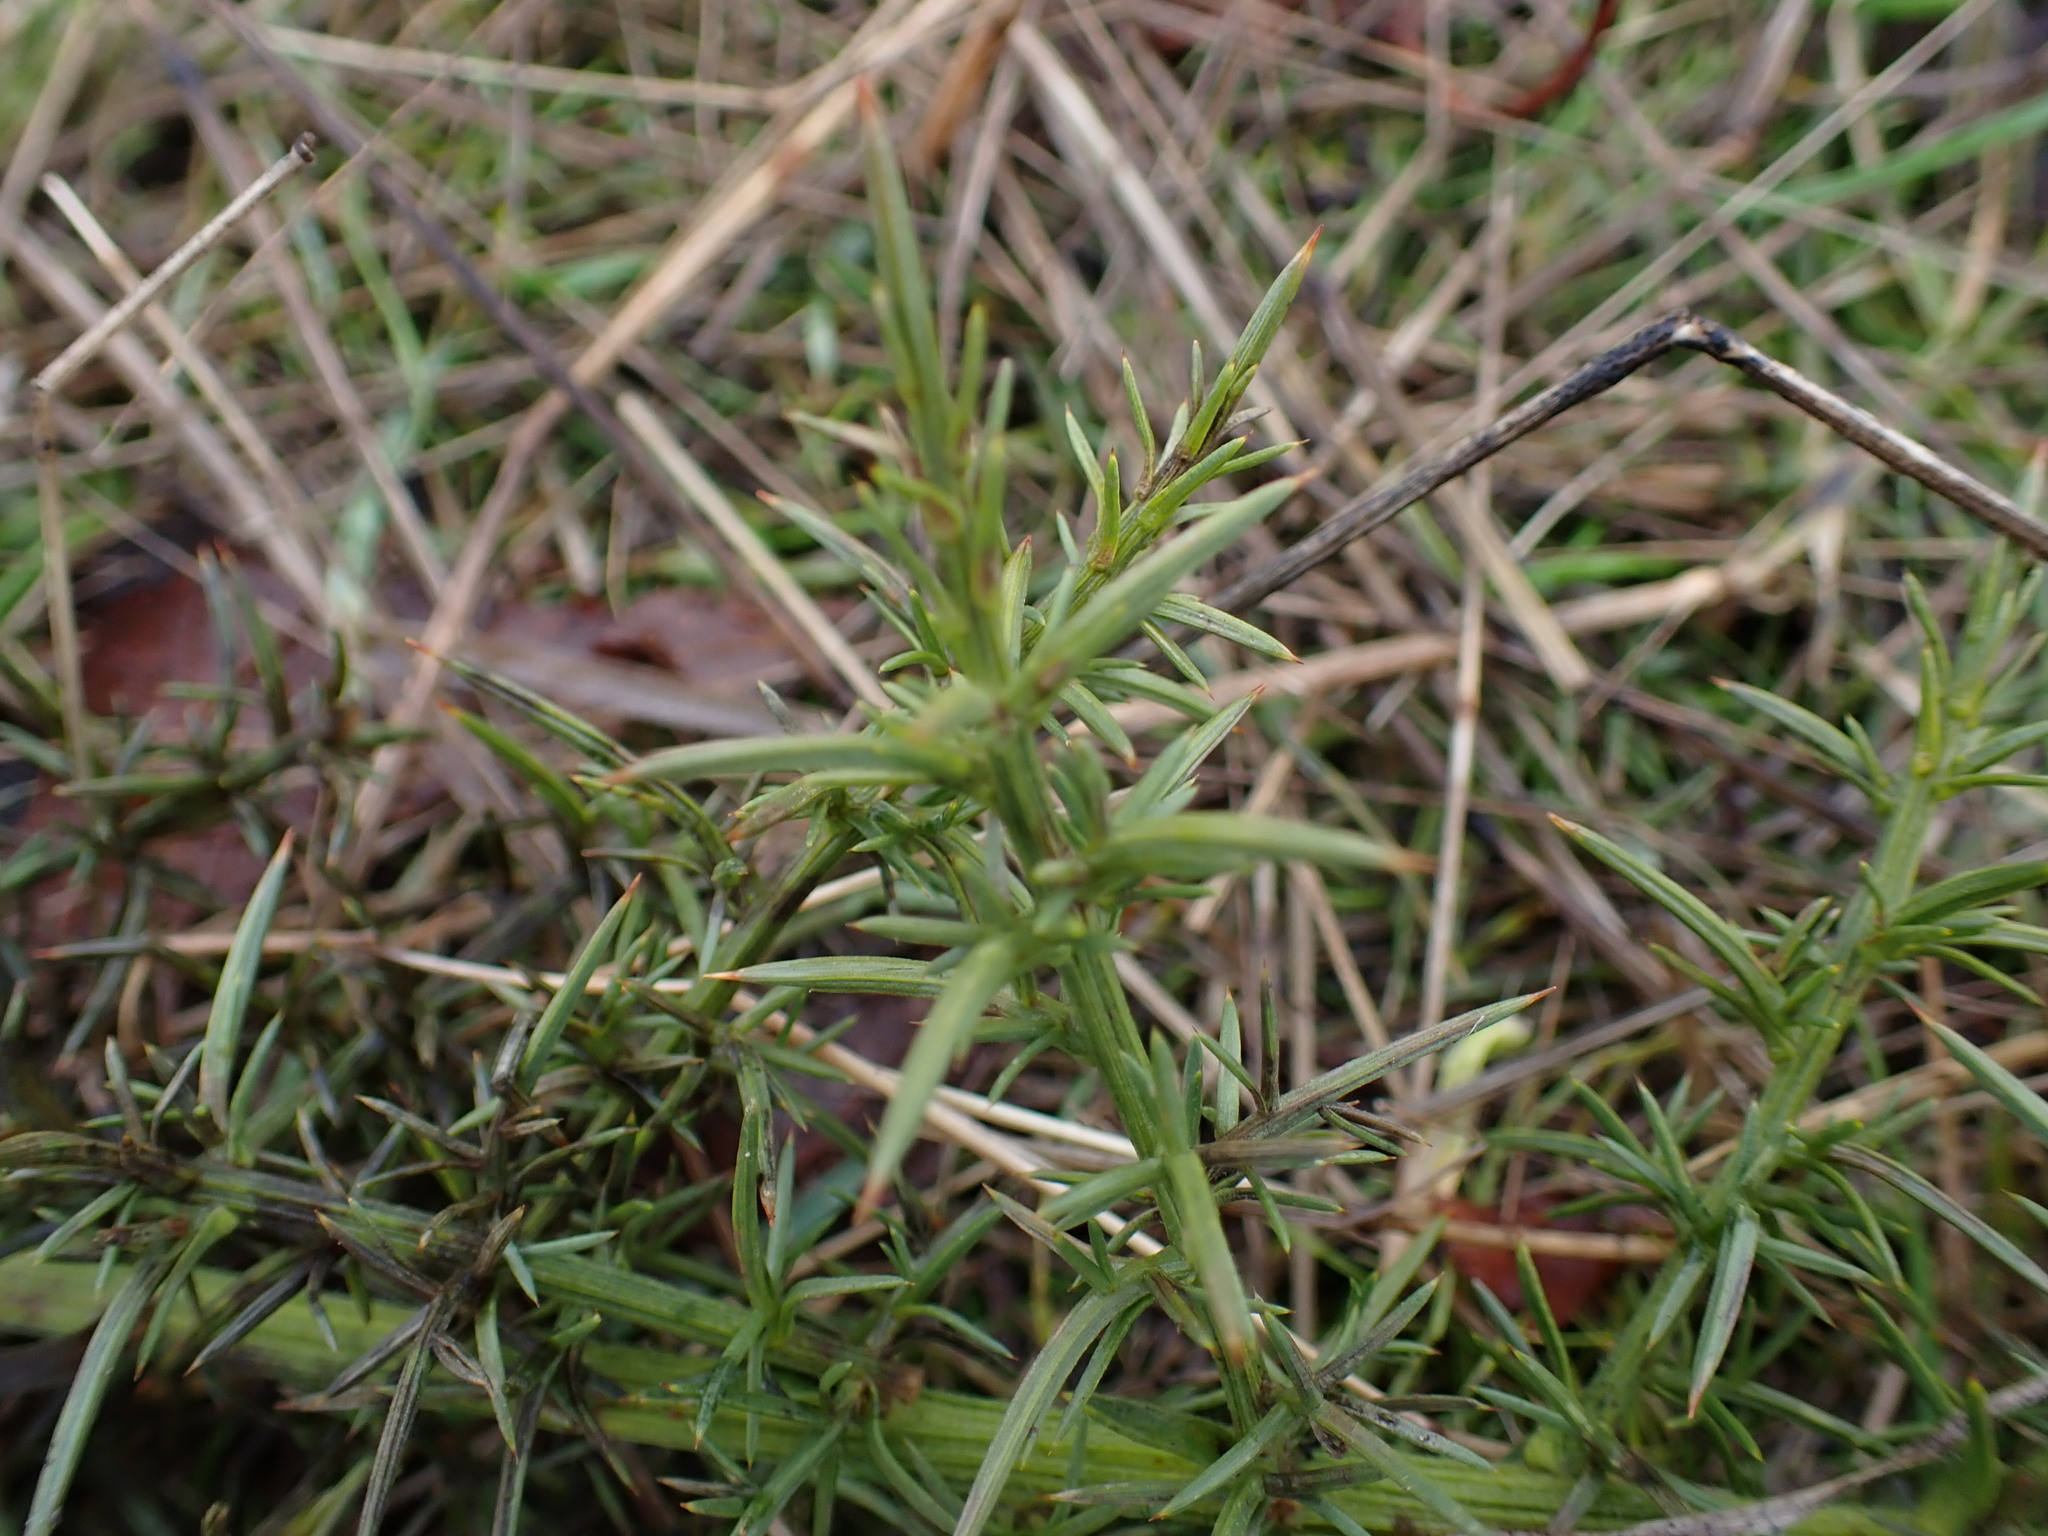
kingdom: Plantae
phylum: Tracheophyta
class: Magnoliopsida
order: Fabales
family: Fabaceae
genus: Ulex
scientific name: Ulex europaeus
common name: Common gorse
